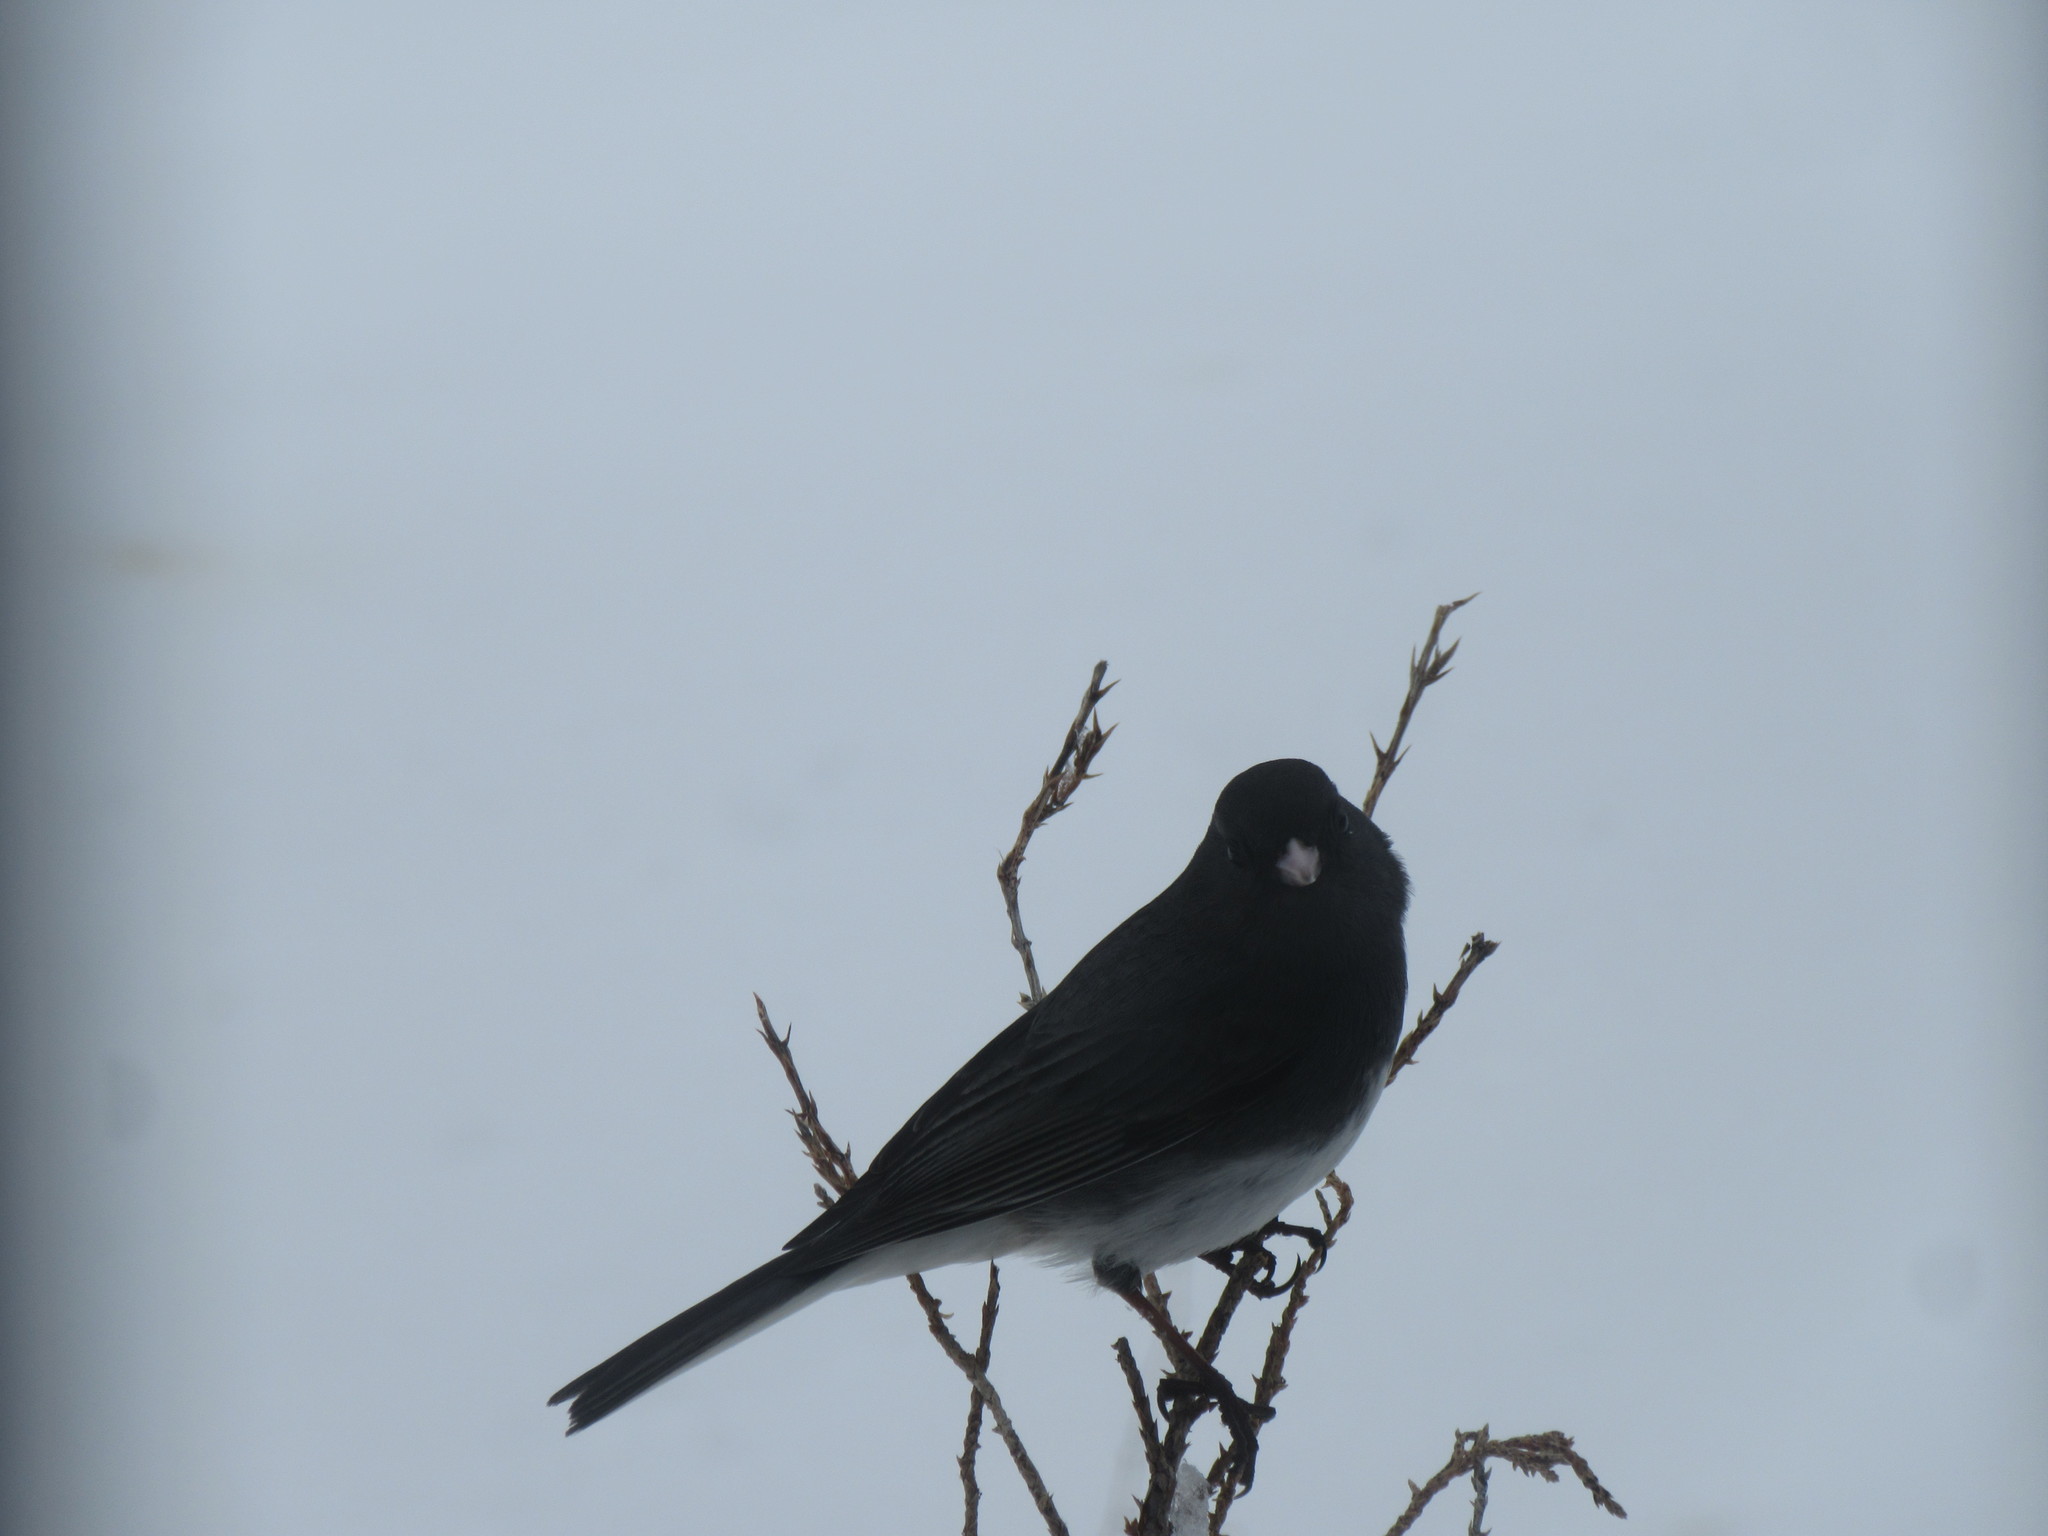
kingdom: Animalia
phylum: Chordata
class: Aves
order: Passeriformes
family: Passerellidae
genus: Junco
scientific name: Junco hyemalis
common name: Dark-eyed junco
